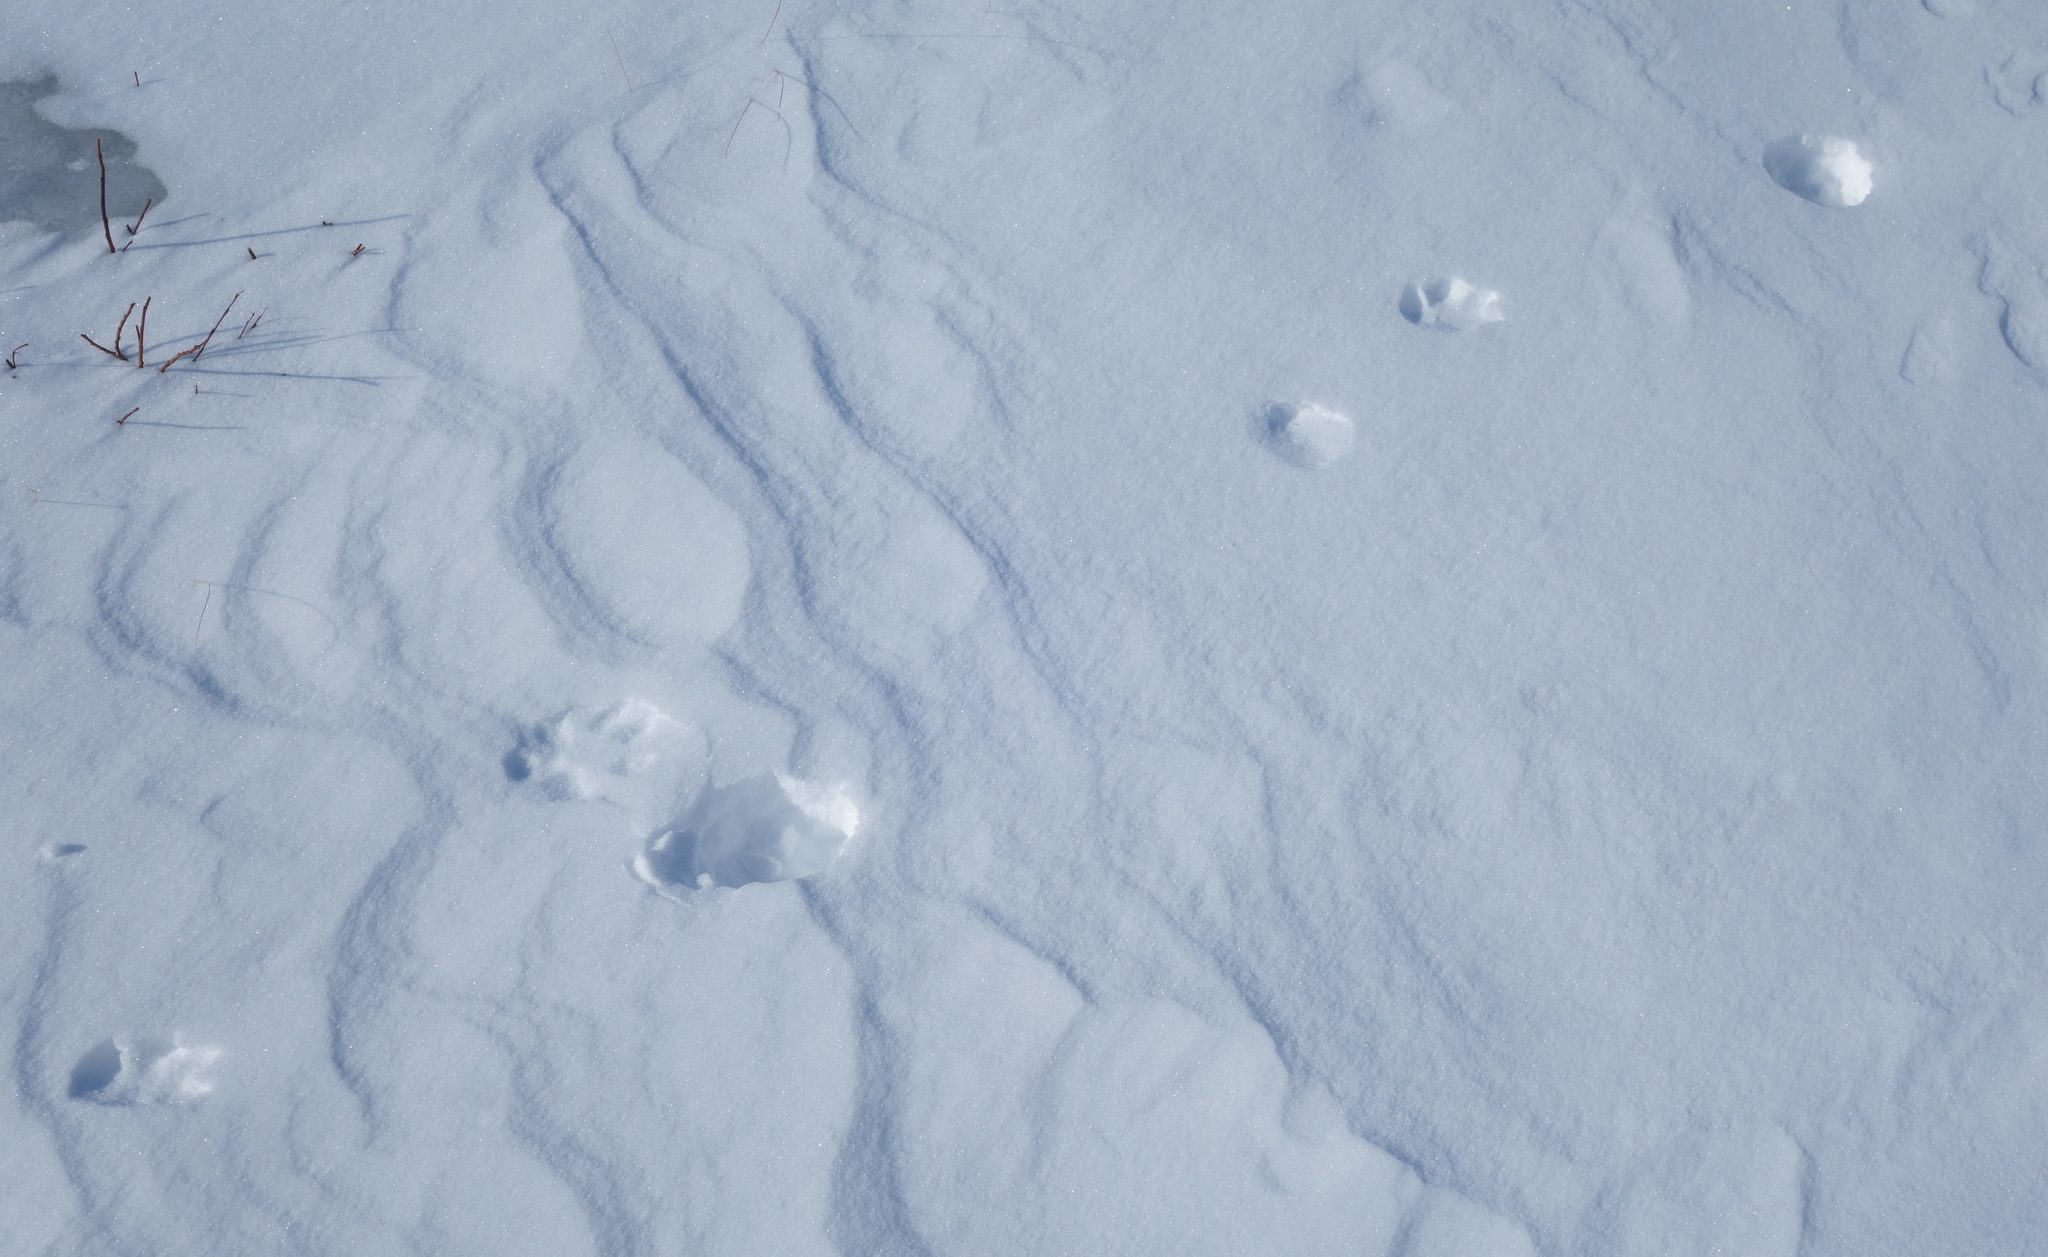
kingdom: Animalia
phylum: Chordata
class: Mammalia
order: Lagomorpha
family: Leporidae
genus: Lepus
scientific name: Lepus timidus
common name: Mountain hare
